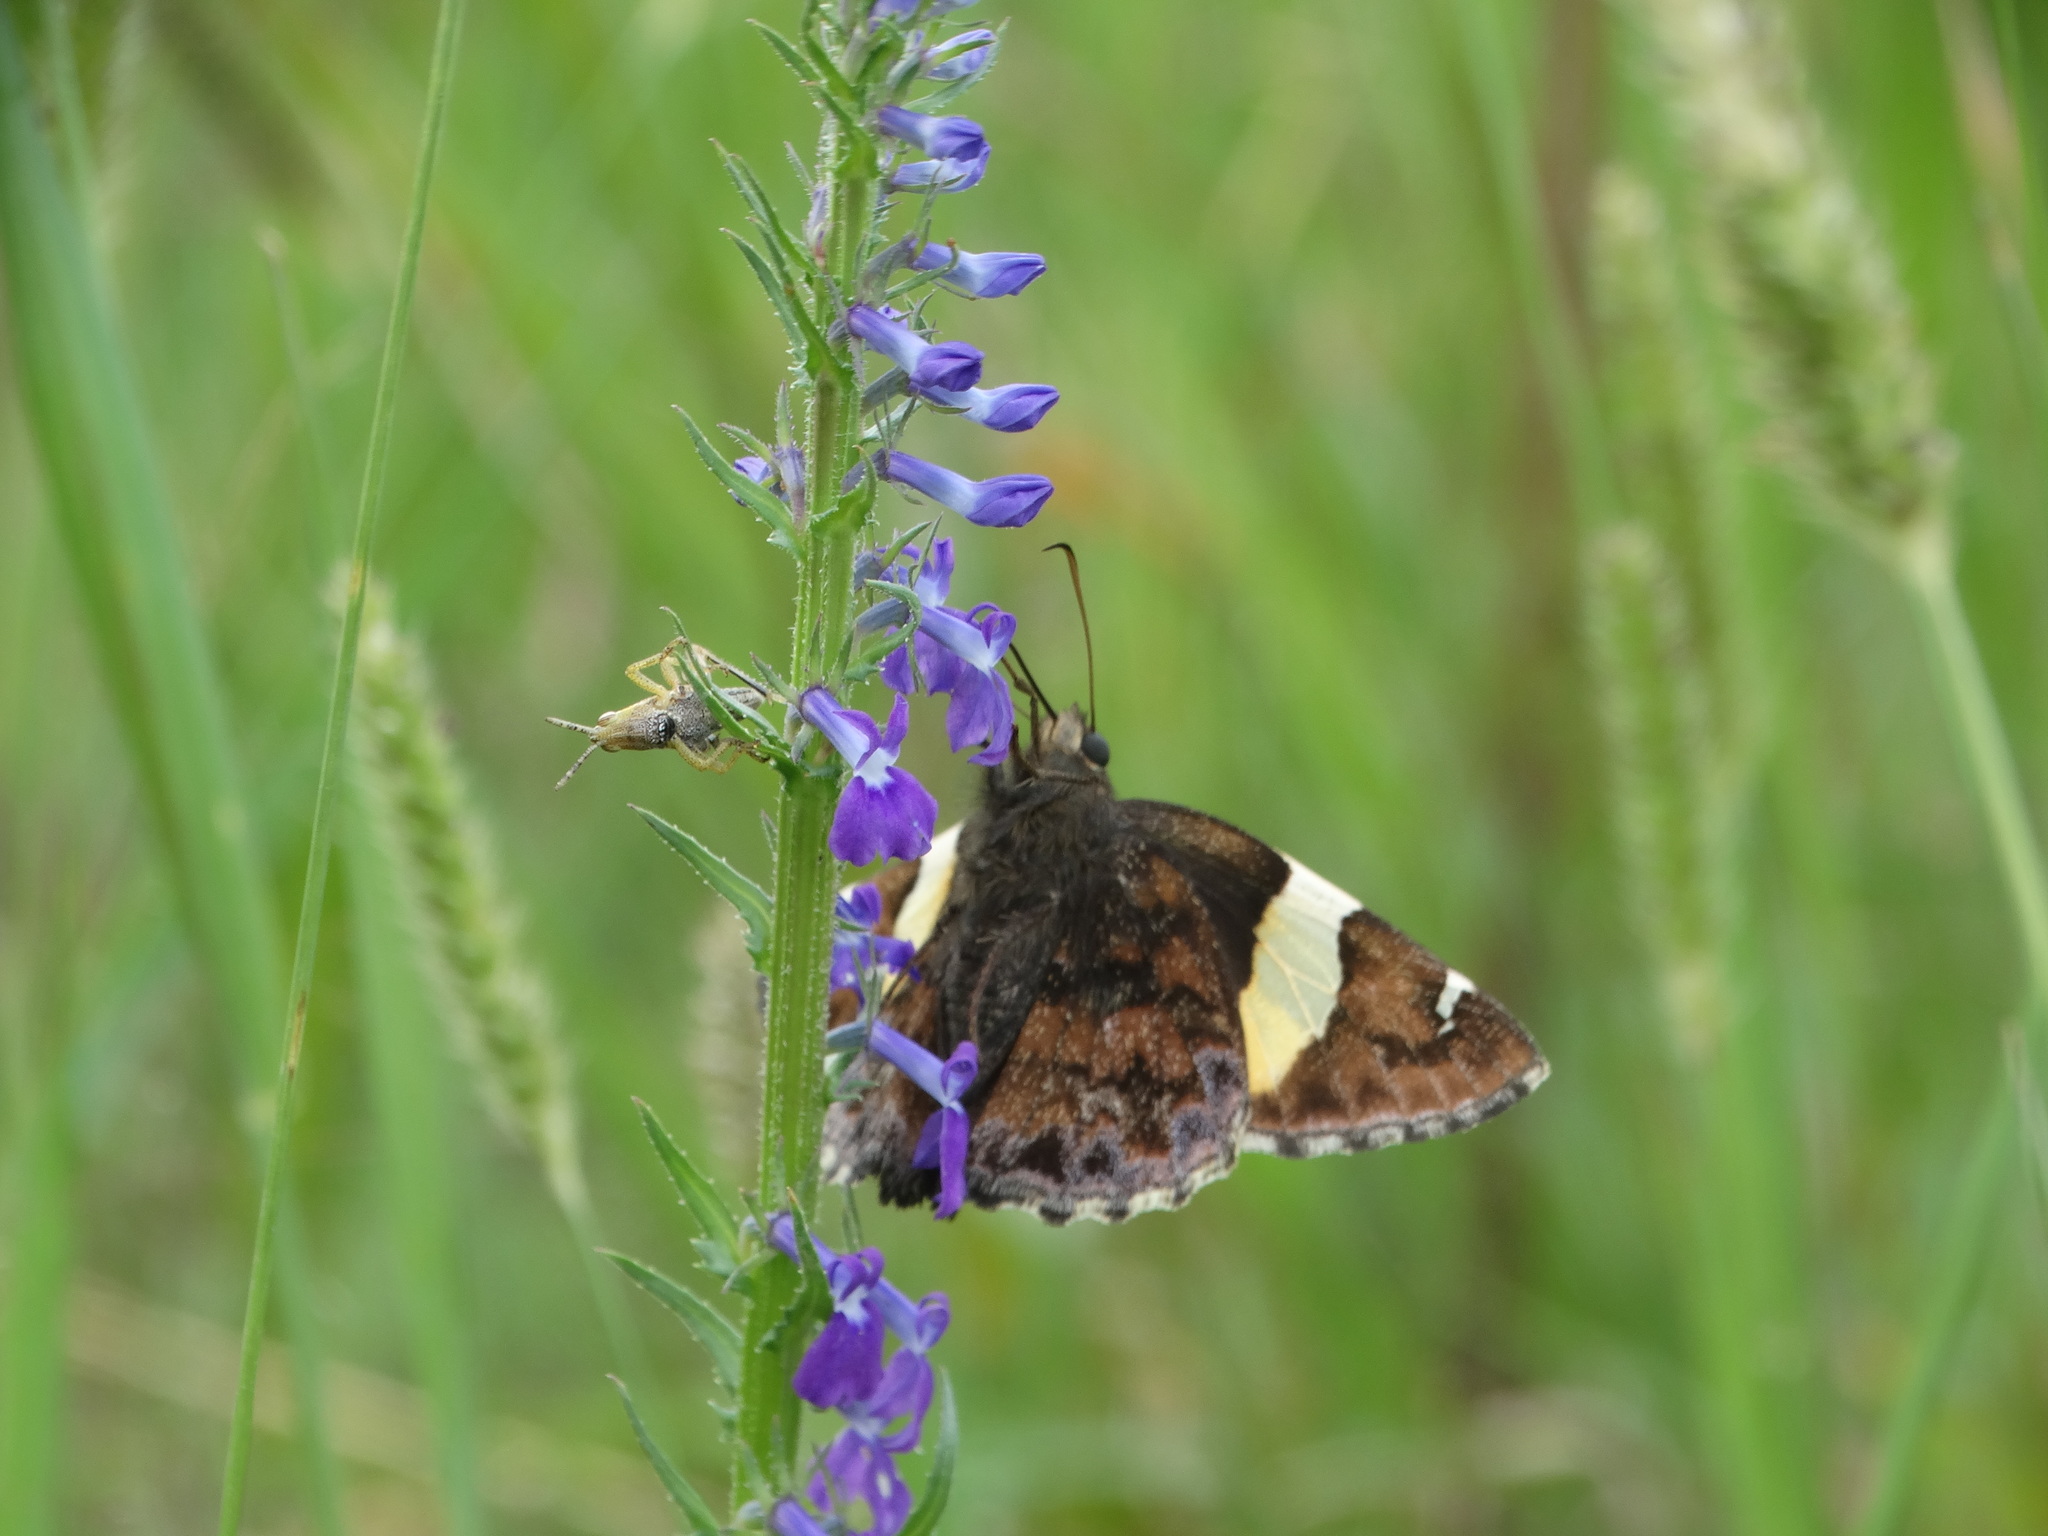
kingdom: Animalia
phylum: Arthropoda
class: Arachnida
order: Scorpiones
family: Bothriuridae
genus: Telegonus
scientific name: Telegonus cellus
